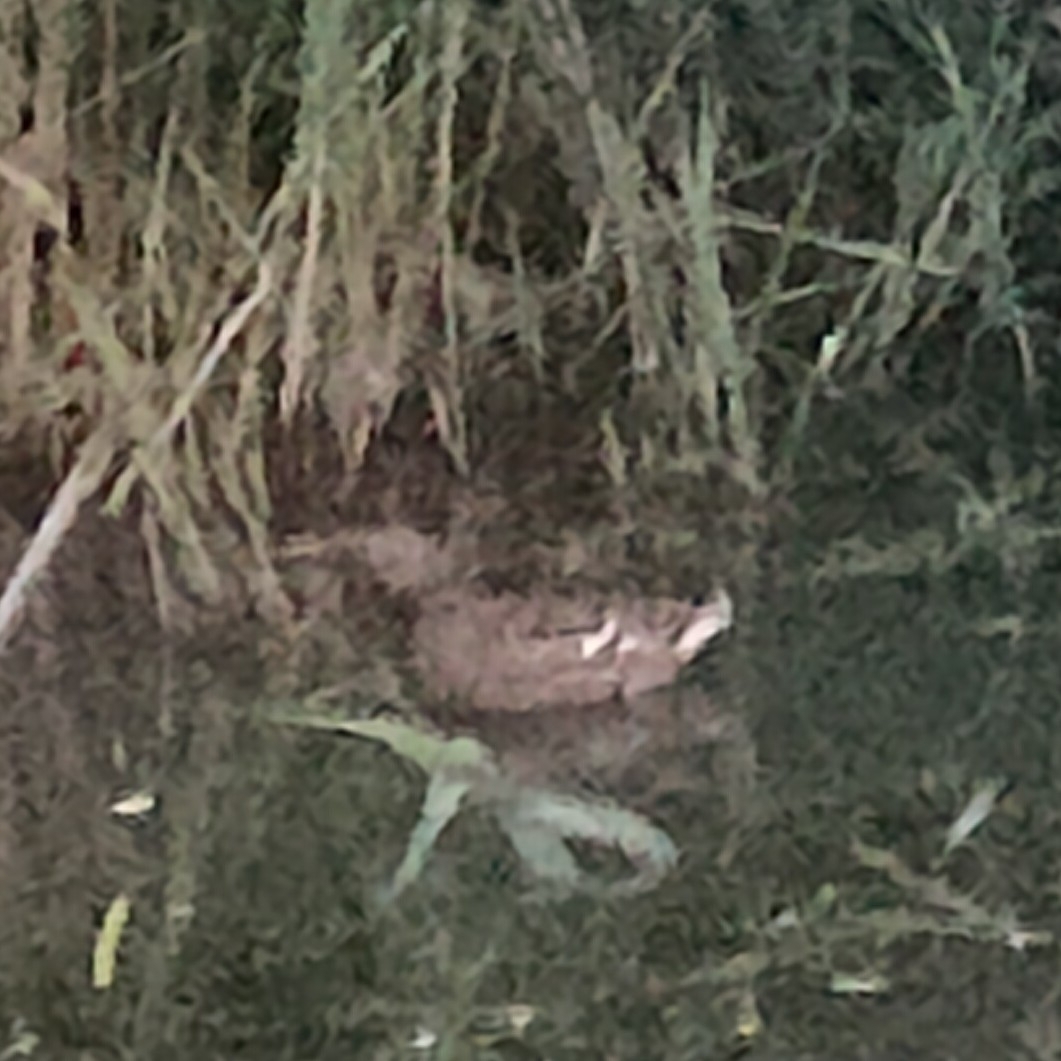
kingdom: Animalia
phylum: Chordata
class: Aves
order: Anseriformes
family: Anatidae
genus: Anas
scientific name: Anas platyrhynchos
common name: Mallard
